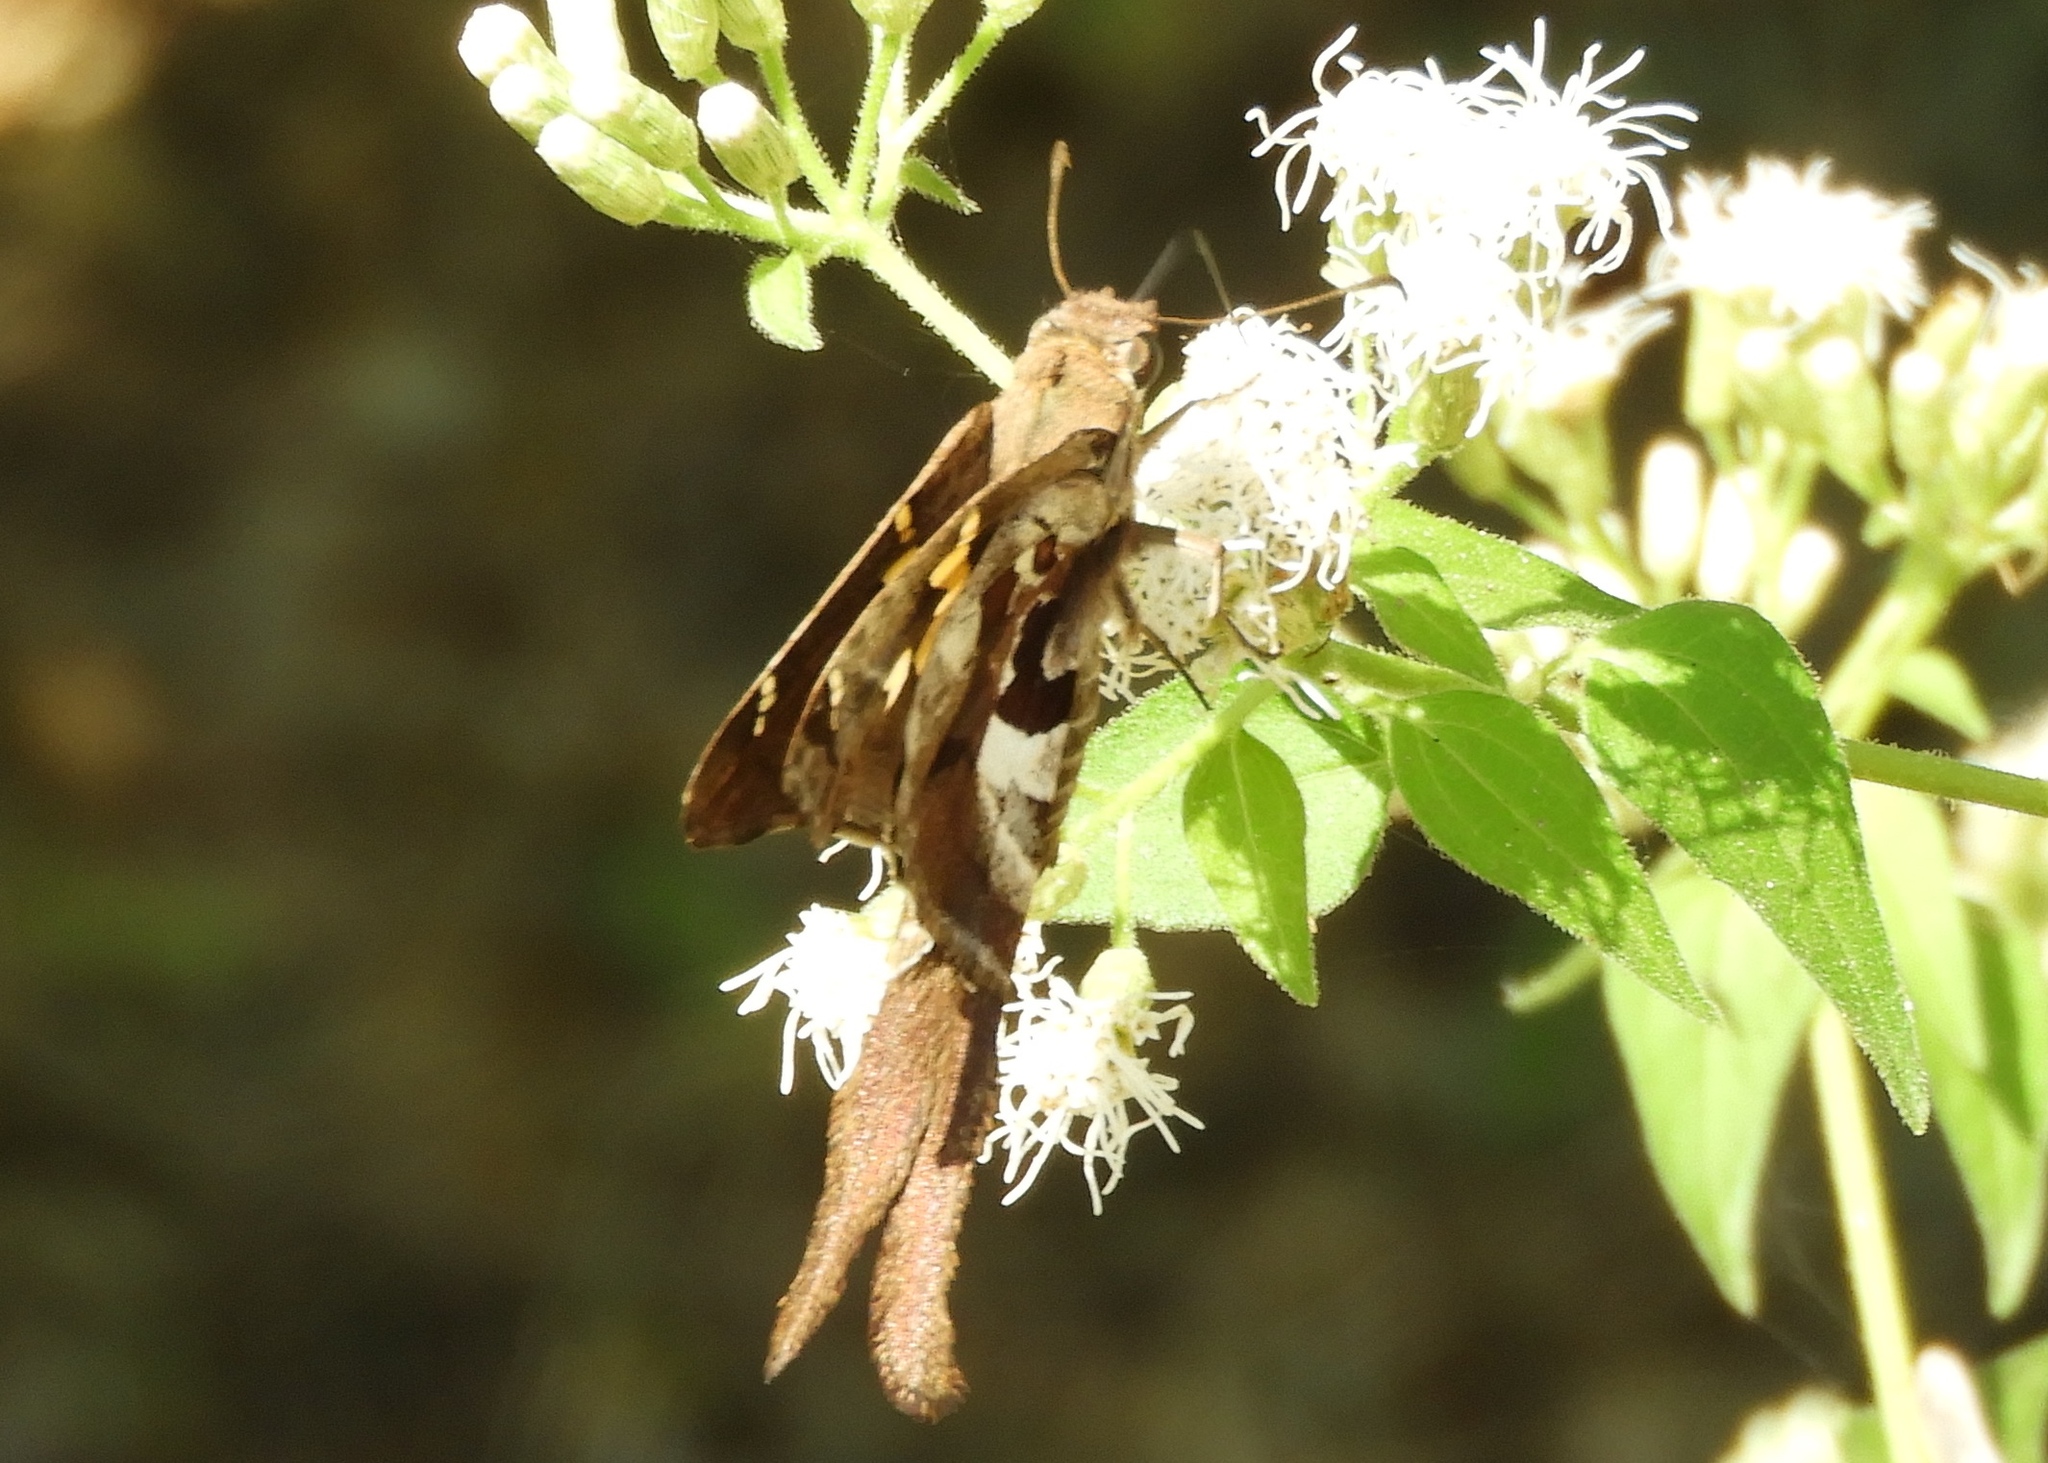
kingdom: Animalia
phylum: Arthropoda
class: Insecta
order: Lepidoptera
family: Hesperiidae
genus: Chioides
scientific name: Chioides zilpa
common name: Zilpa longtail
